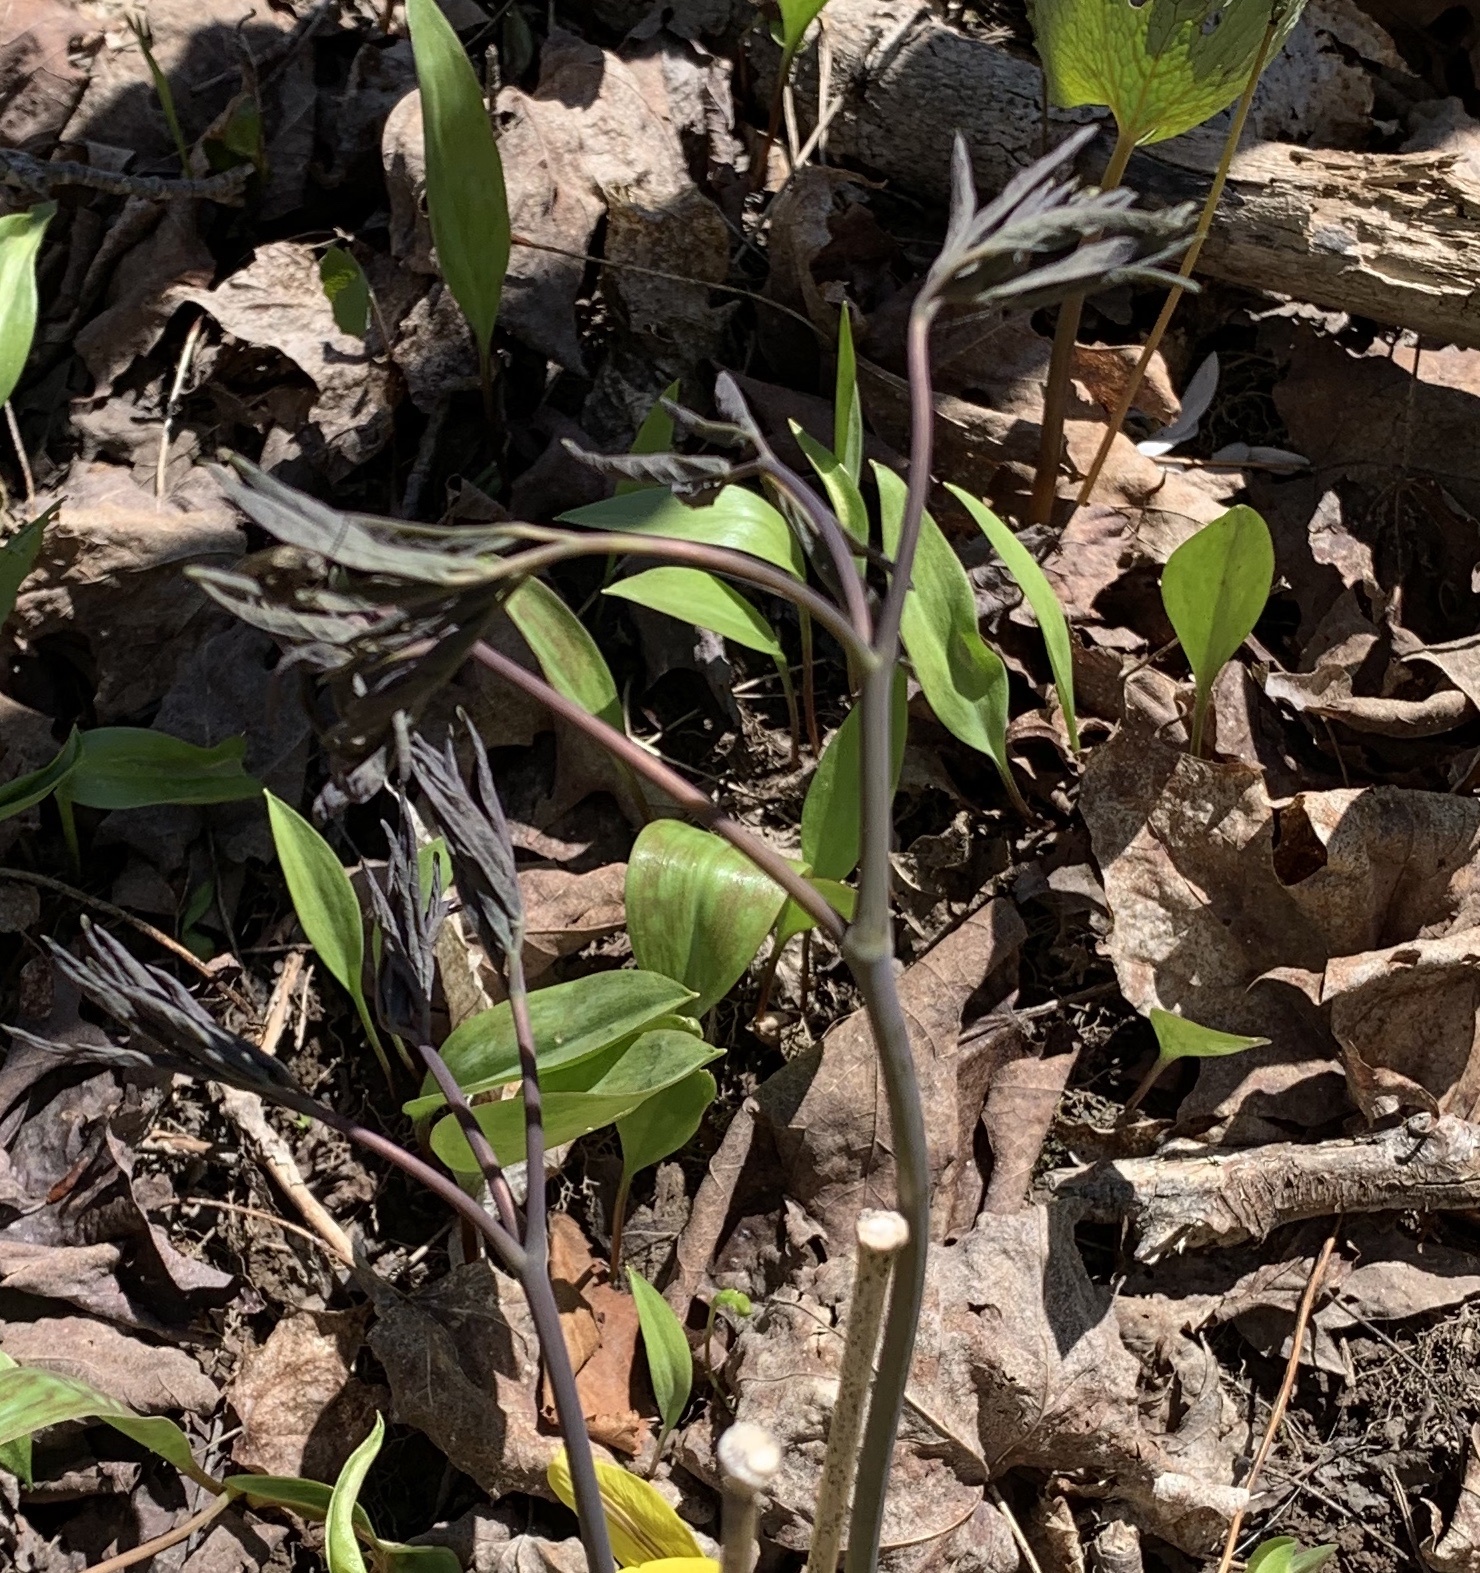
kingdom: Plantae
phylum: Tracheophyta
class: Magnoliopsida
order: Ranunculales
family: Berberidaceae
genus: Caulophyllum
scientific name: Caulophyllum thalictroides
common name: Blue cohosh
